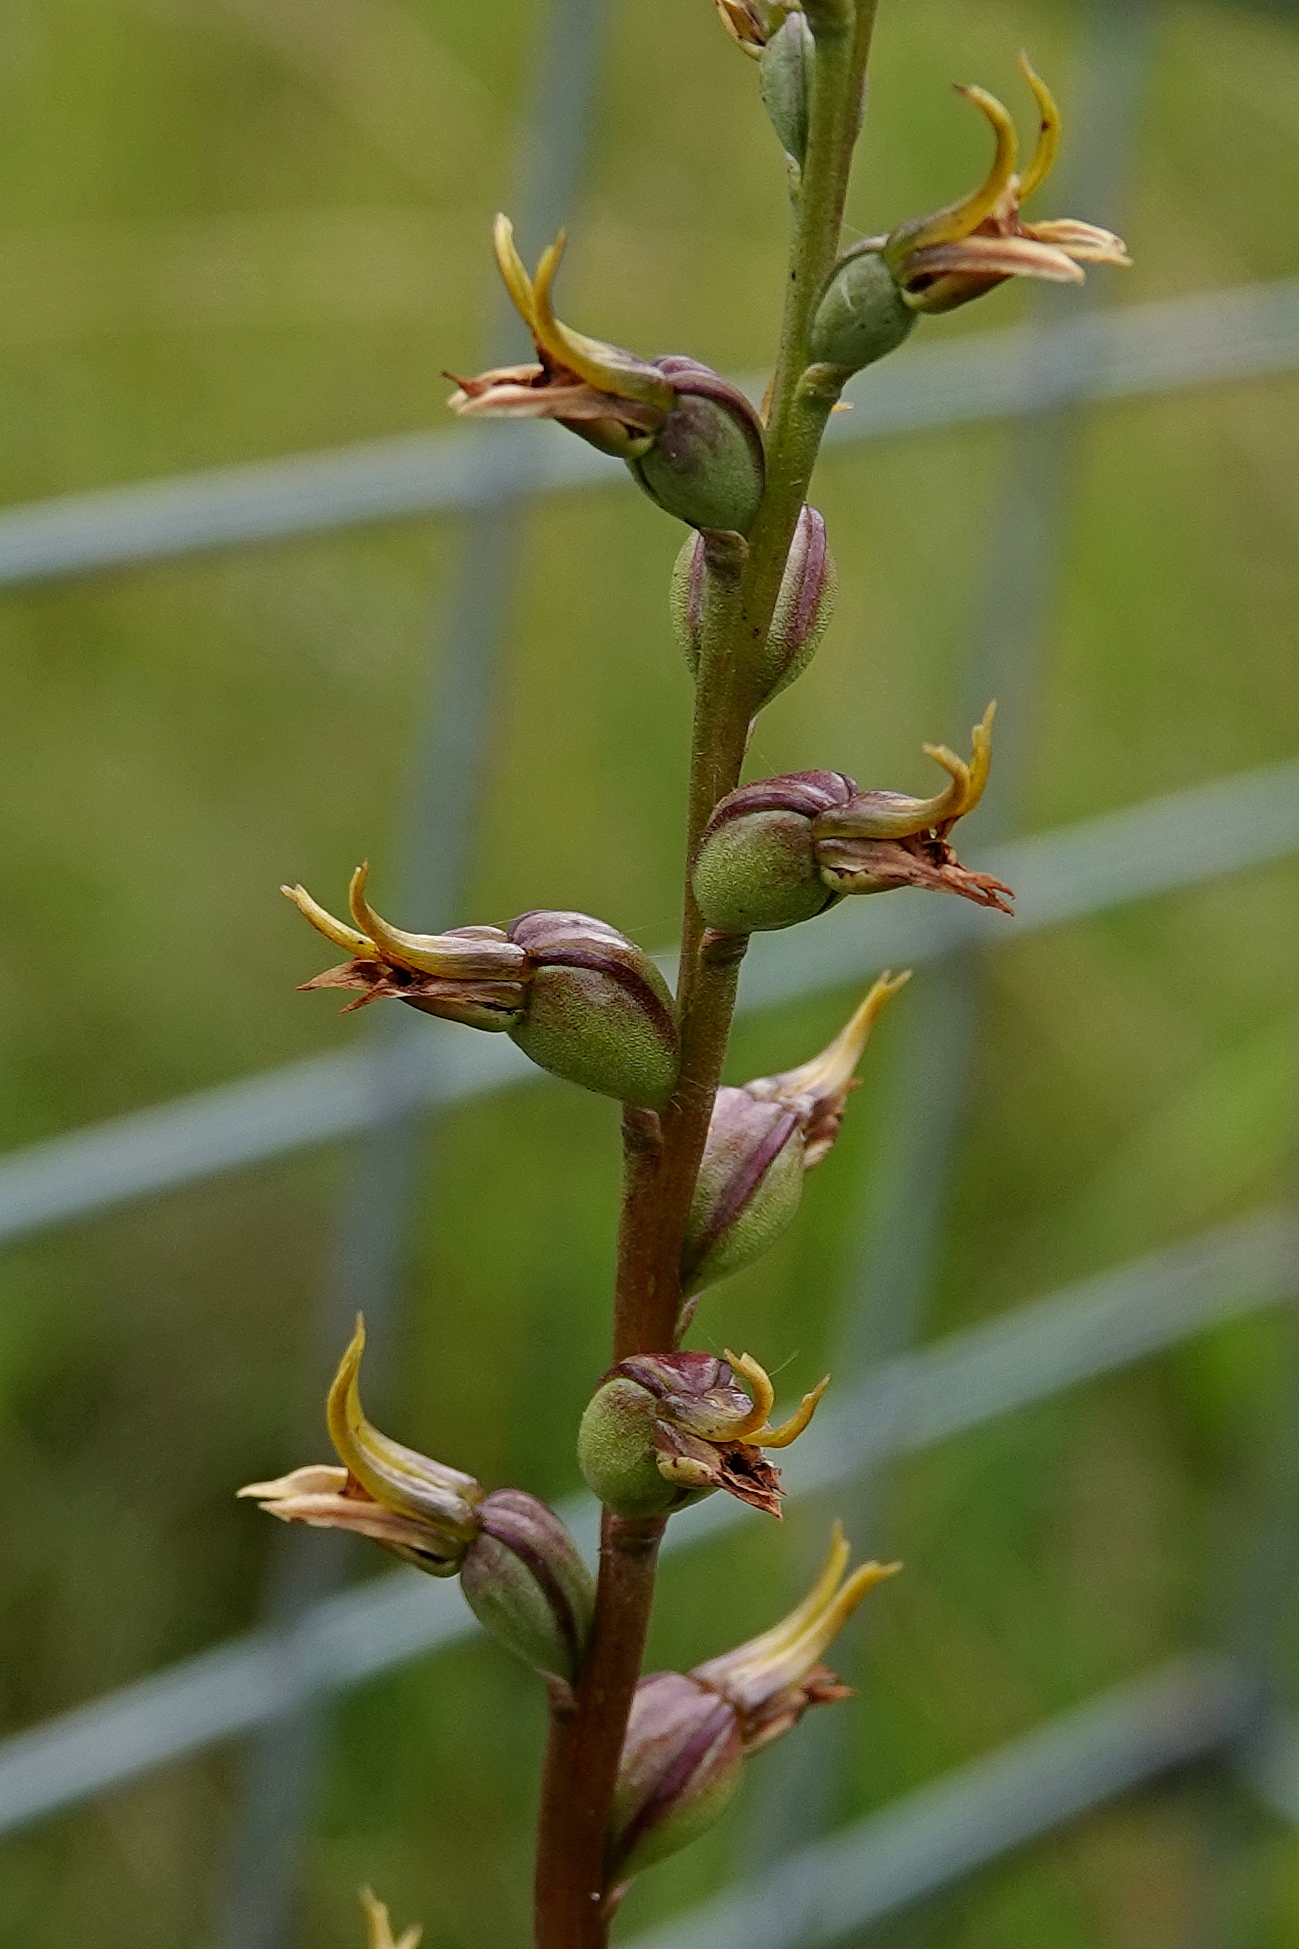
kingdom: Plantae
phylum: Tracheophyta
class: Liliopsida
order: Asparagales
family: Orchidaceae
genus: Prasophyllum
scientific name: Prasophyllum canaliculatum
